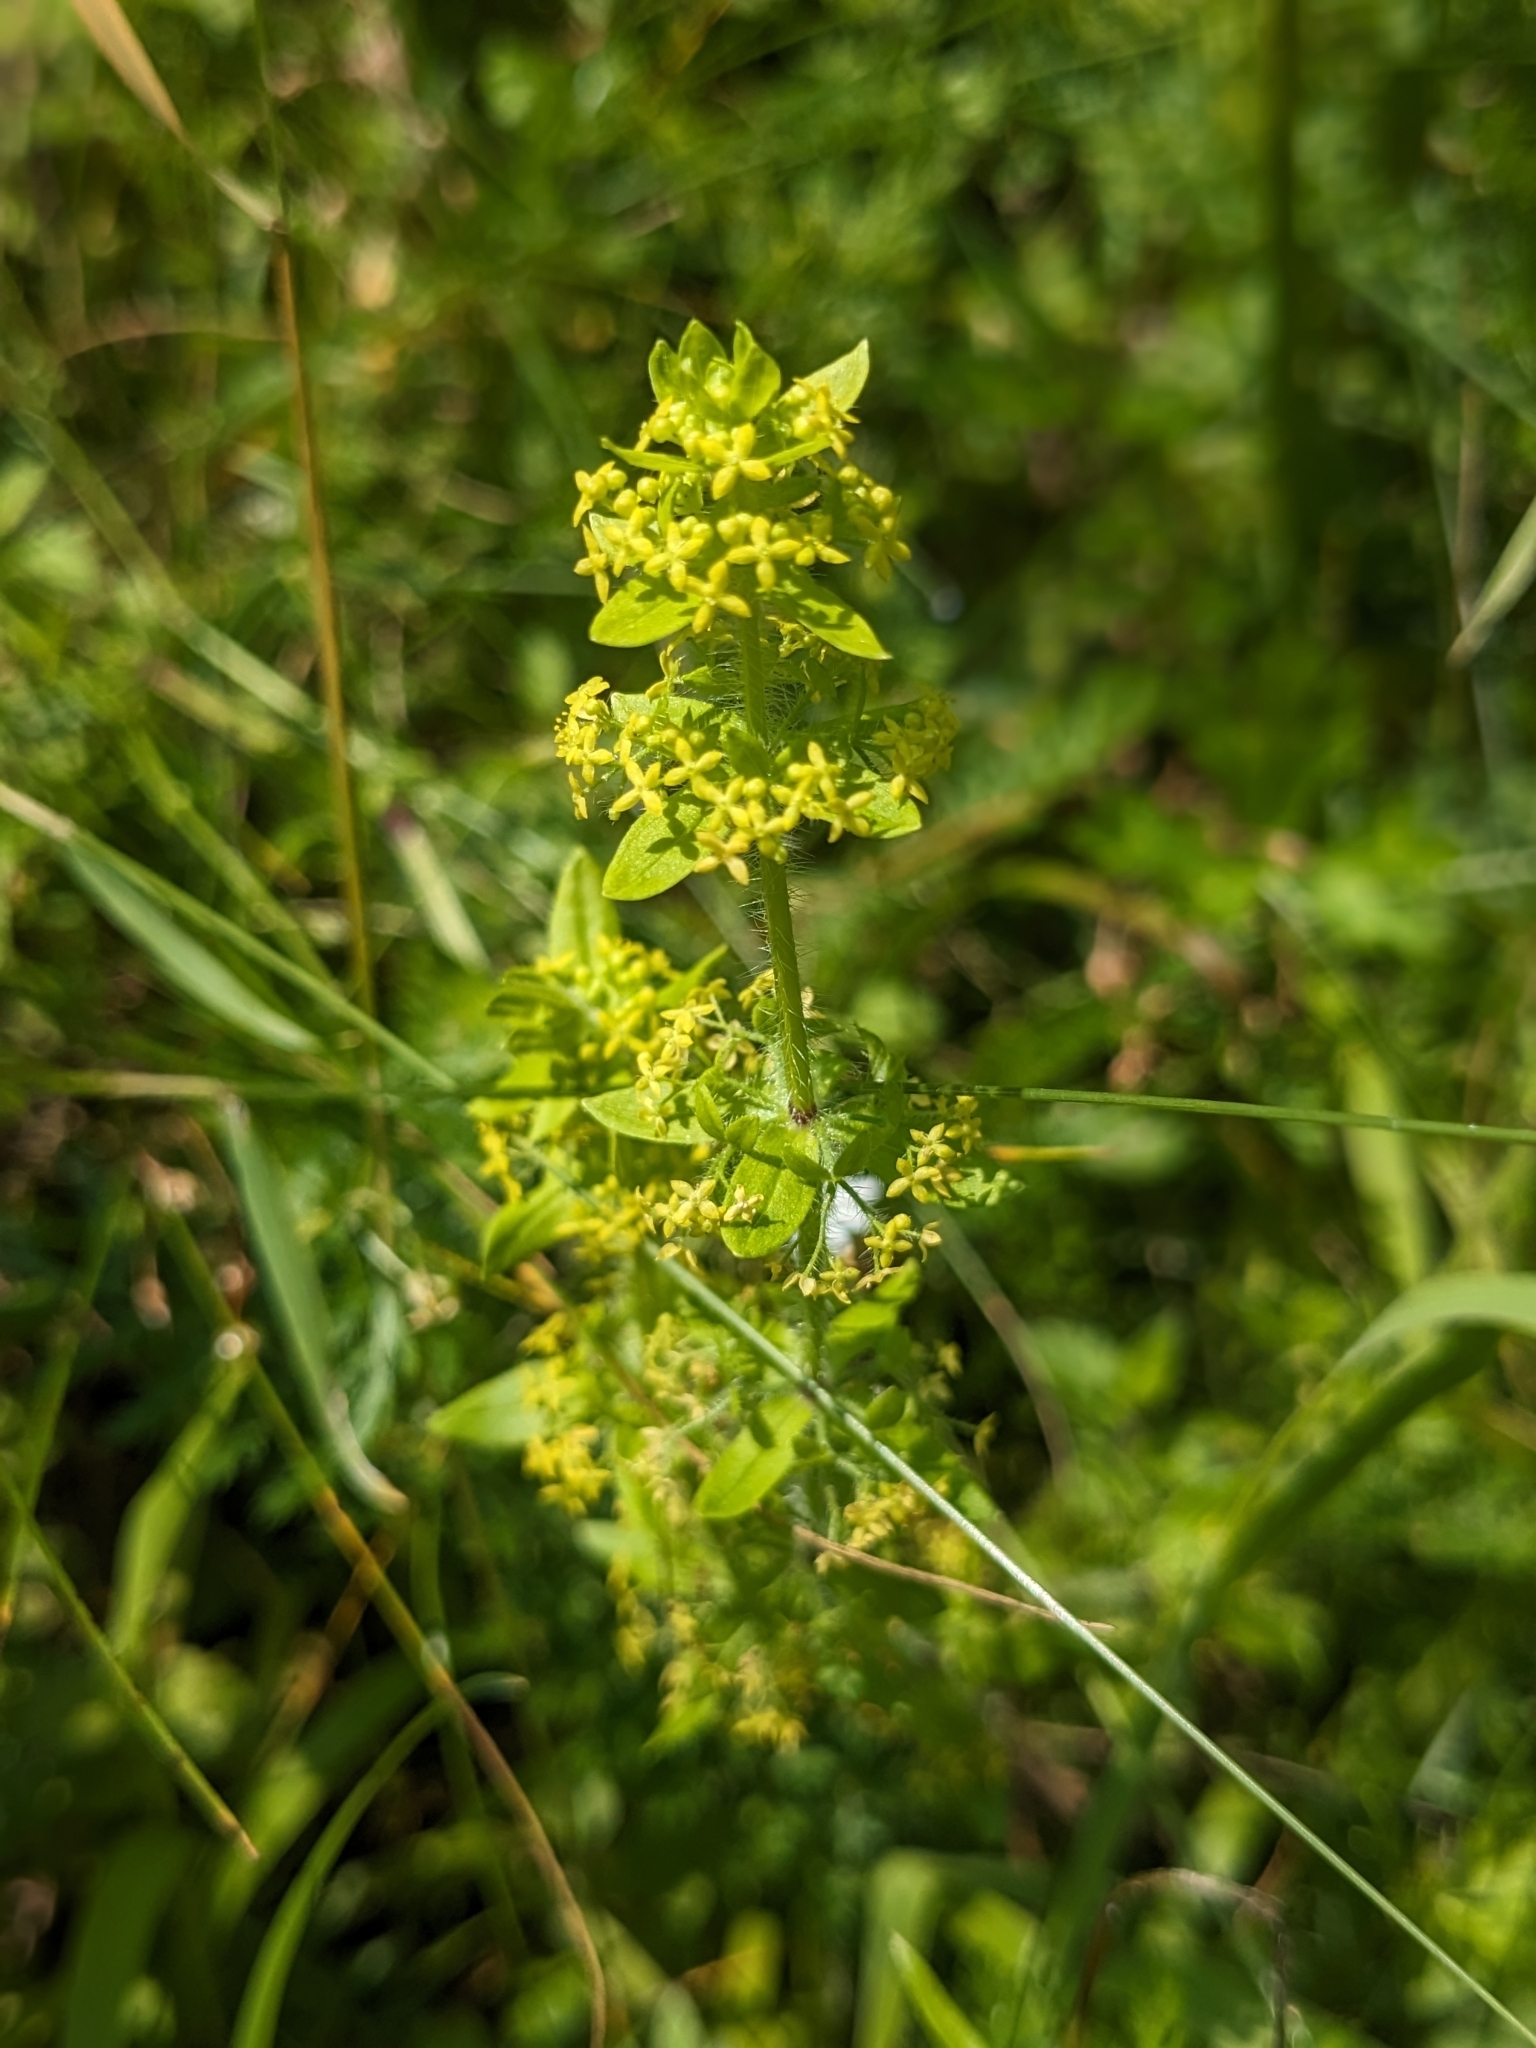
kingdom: Plantae
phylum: Tracheophyta
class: Magnoliopsida
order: Gentianales
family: Rubiaceae
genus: Cruciata
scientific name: Cruciata laevipes
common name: Crosswort
